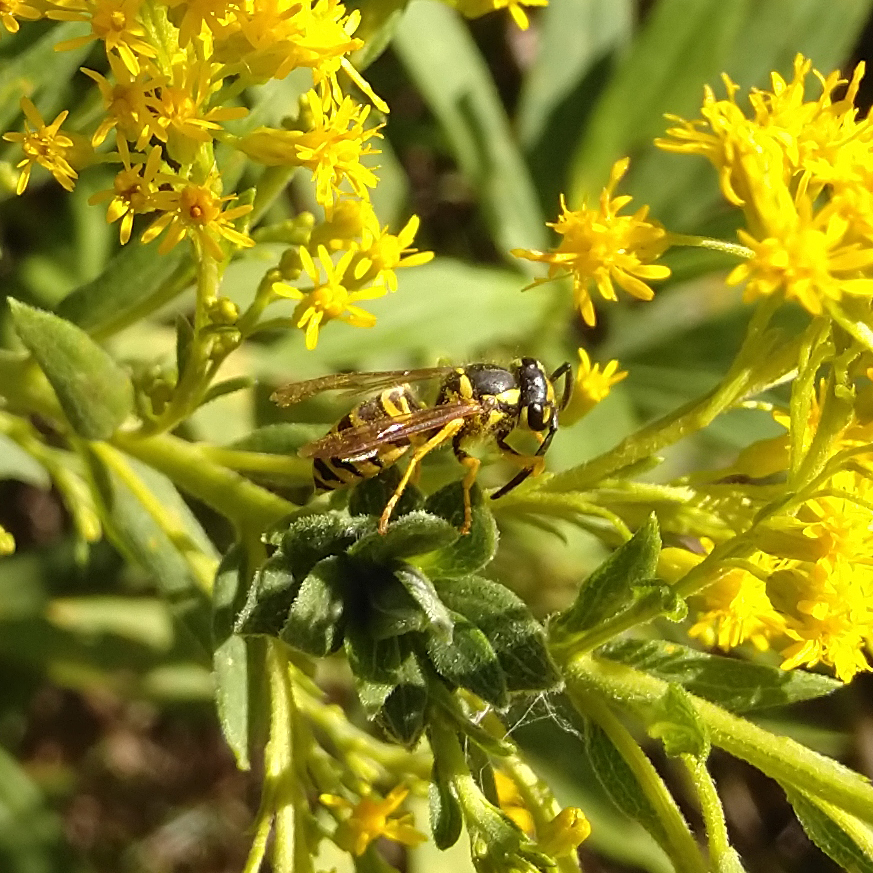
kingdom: Animalia
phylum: Arthropoda
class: Insecta
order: Hymenoptera
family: Vespidae
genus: Vespula
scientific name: Vespula maculifrons
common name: Eastern yellowjacket
